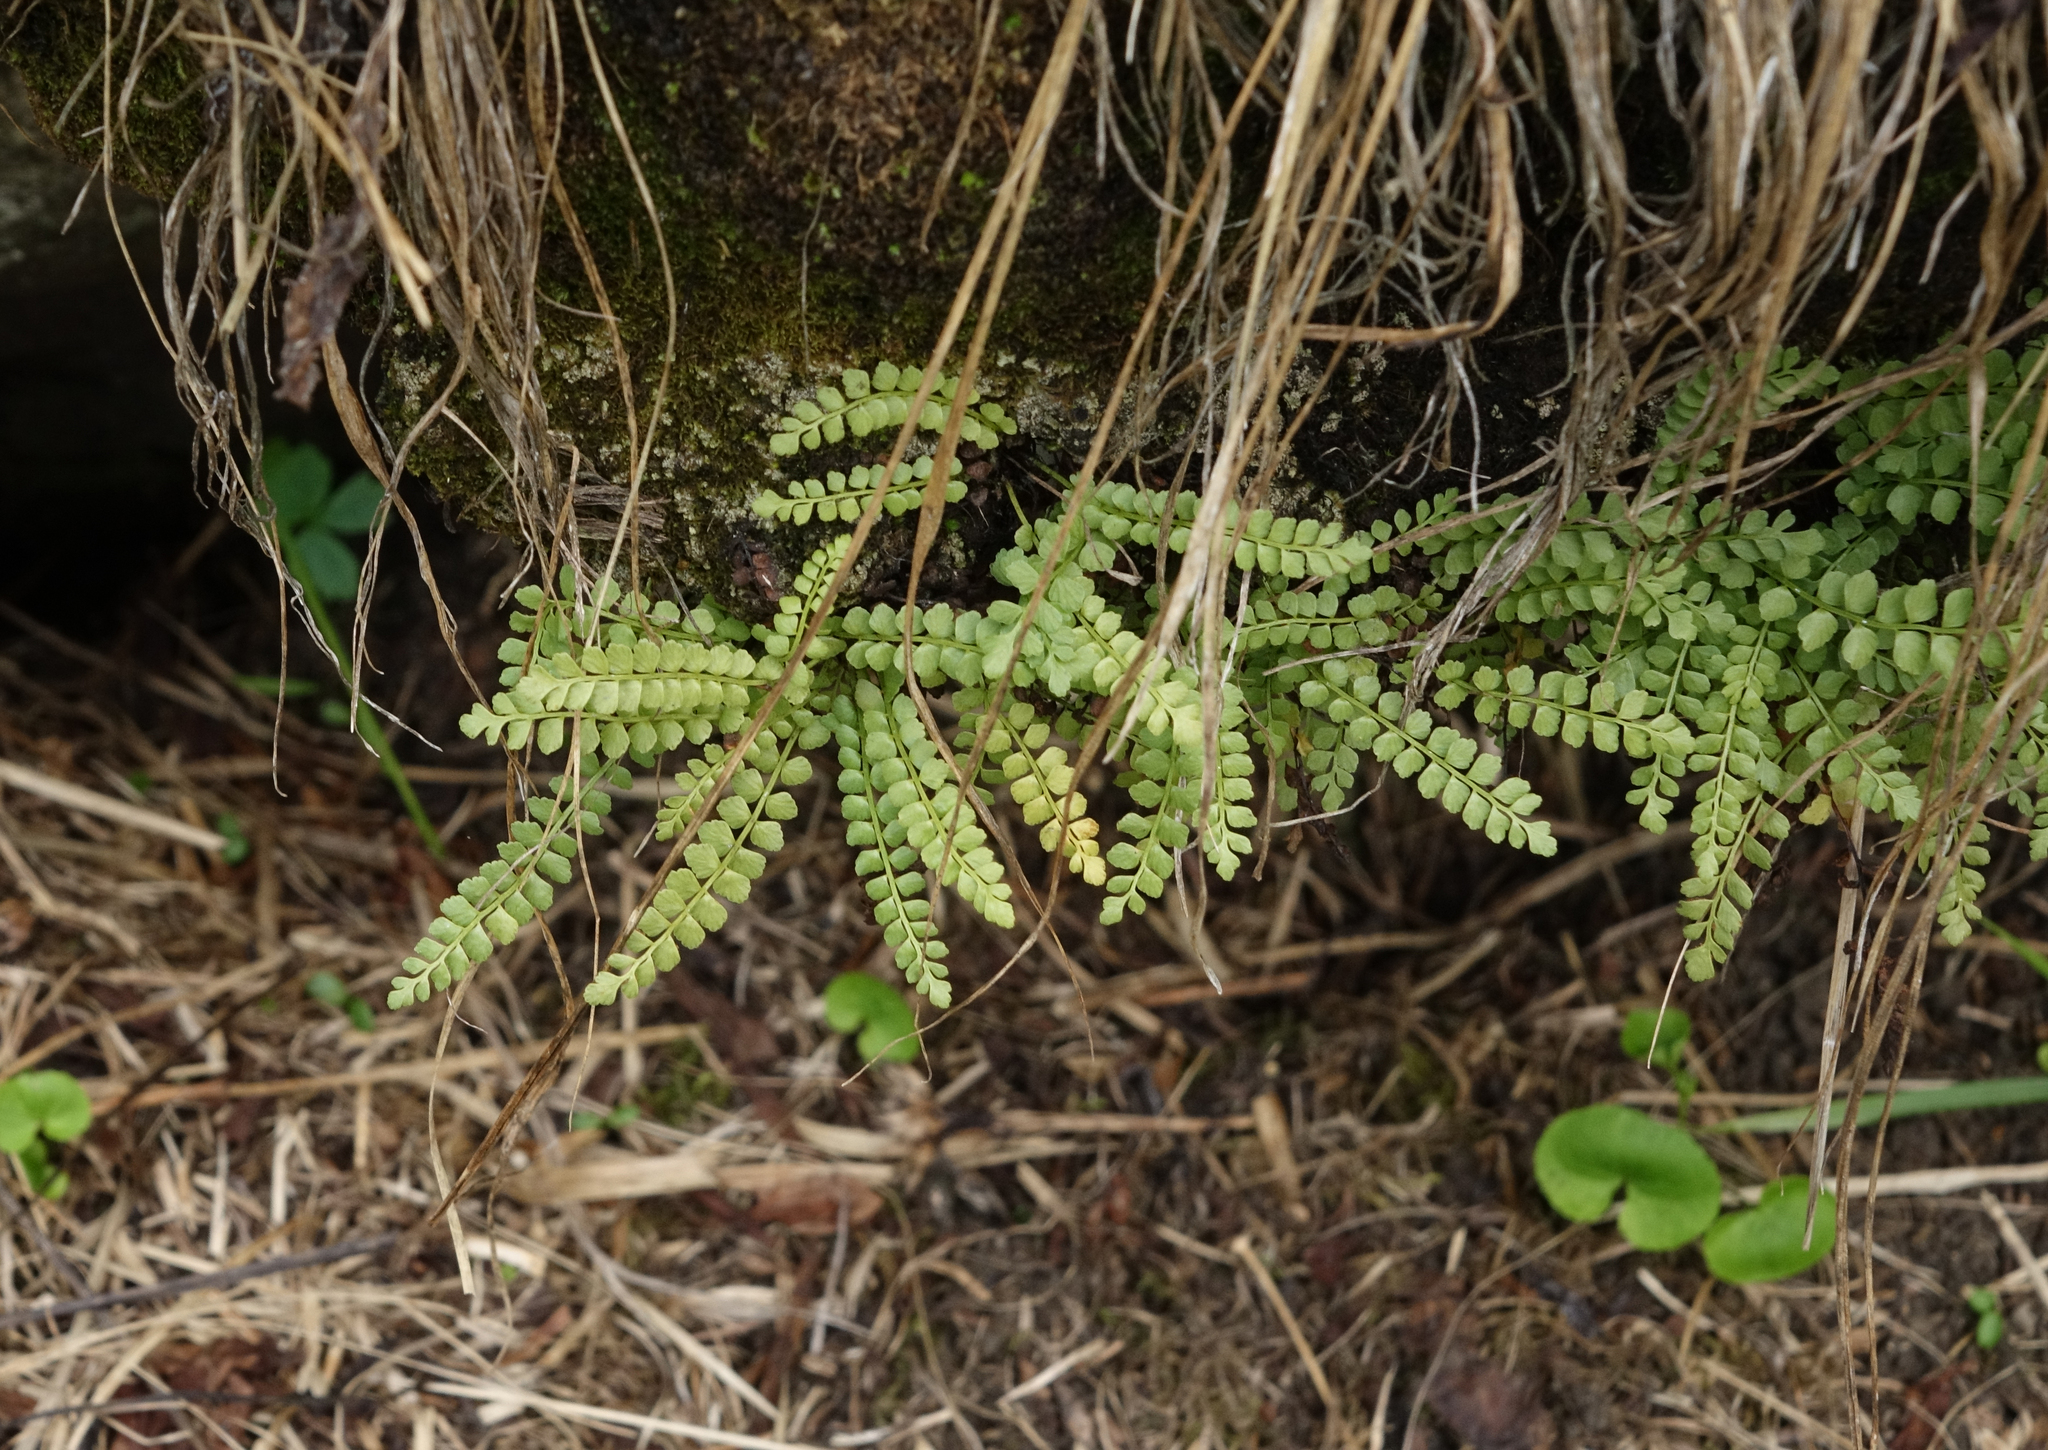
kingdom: Plantae
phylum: Tracheophyta
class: Polypodiopsida
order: Polypodiales
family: Aspleniaceae
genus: Asplenium
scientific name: Asplenium viride
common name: Green spleenwort
